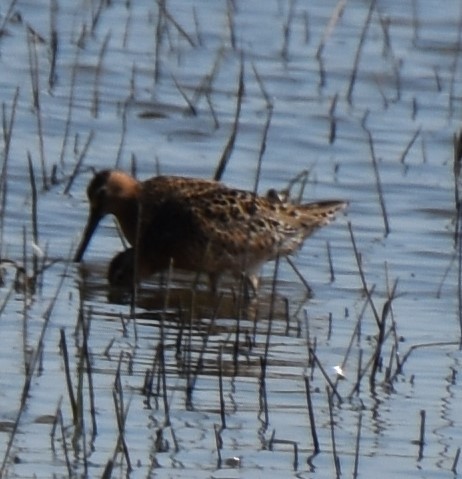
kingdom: Animalia
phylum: Chordata
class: Aves
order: Charadriiformes
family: Scolopacidae
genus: Limnodromus
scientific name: Limnodromus griseus
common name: Short-billed dowitcher
